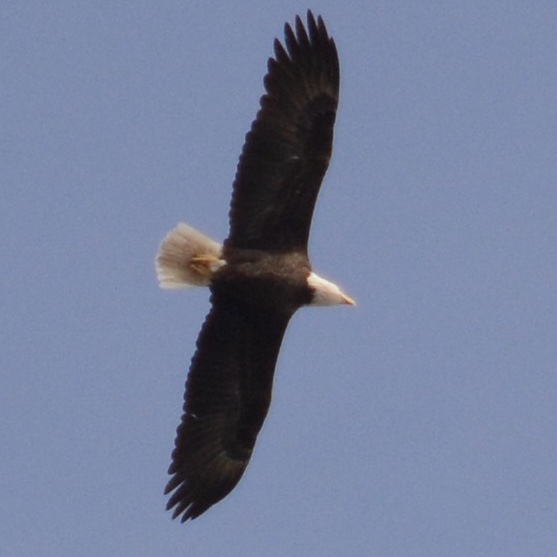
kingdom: Animalia
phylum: Chordata
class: Aves
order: Accipitriformes
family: Accipitridae
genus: Haliaeetus
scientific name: Haliaeetus leucocephalus
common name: Bald eagle
